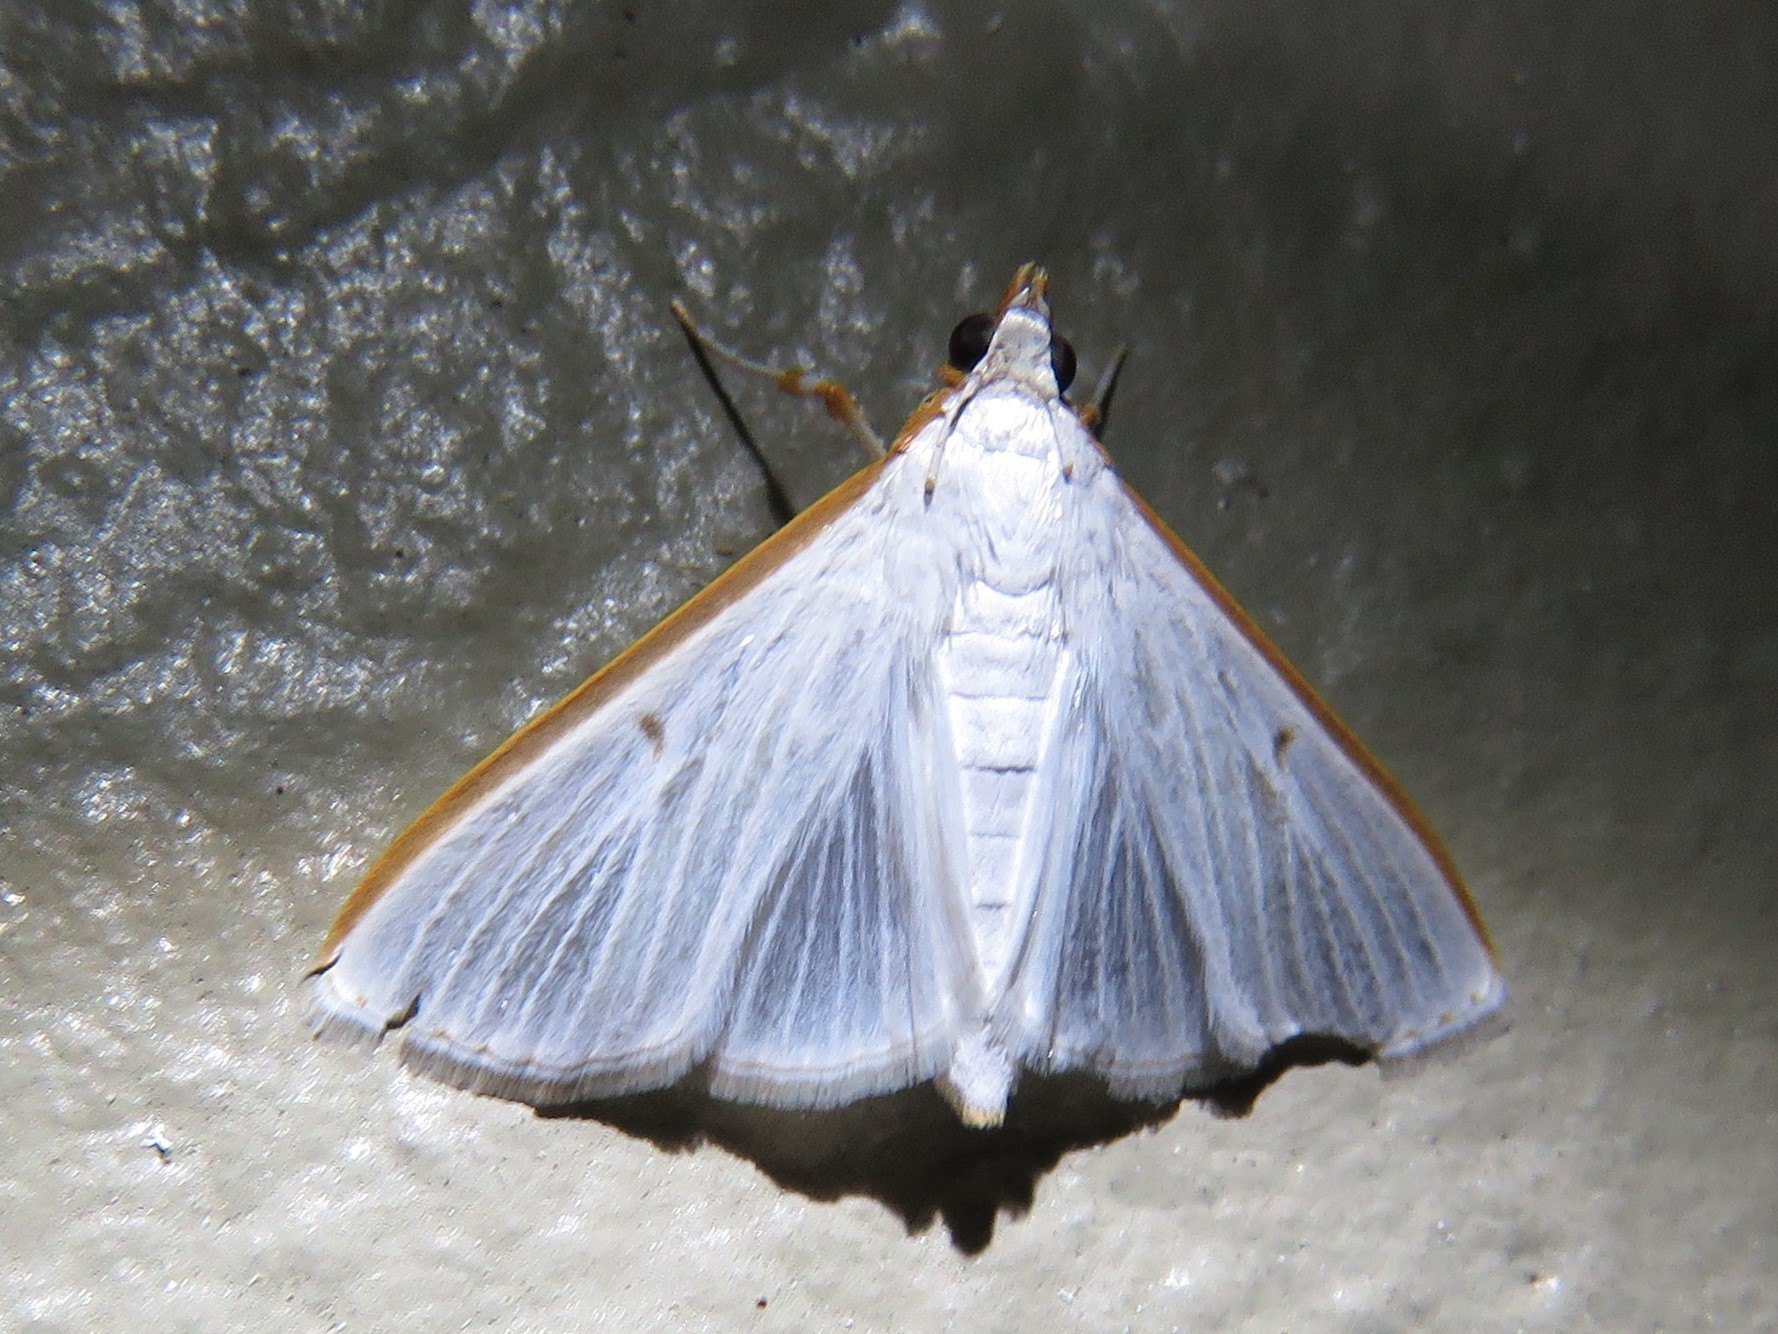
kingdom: Animalia
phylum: Arthropoda
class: Insecta
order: Lepidoptera
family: Crambidae
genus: Diaphania
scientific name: Diaphania costata
